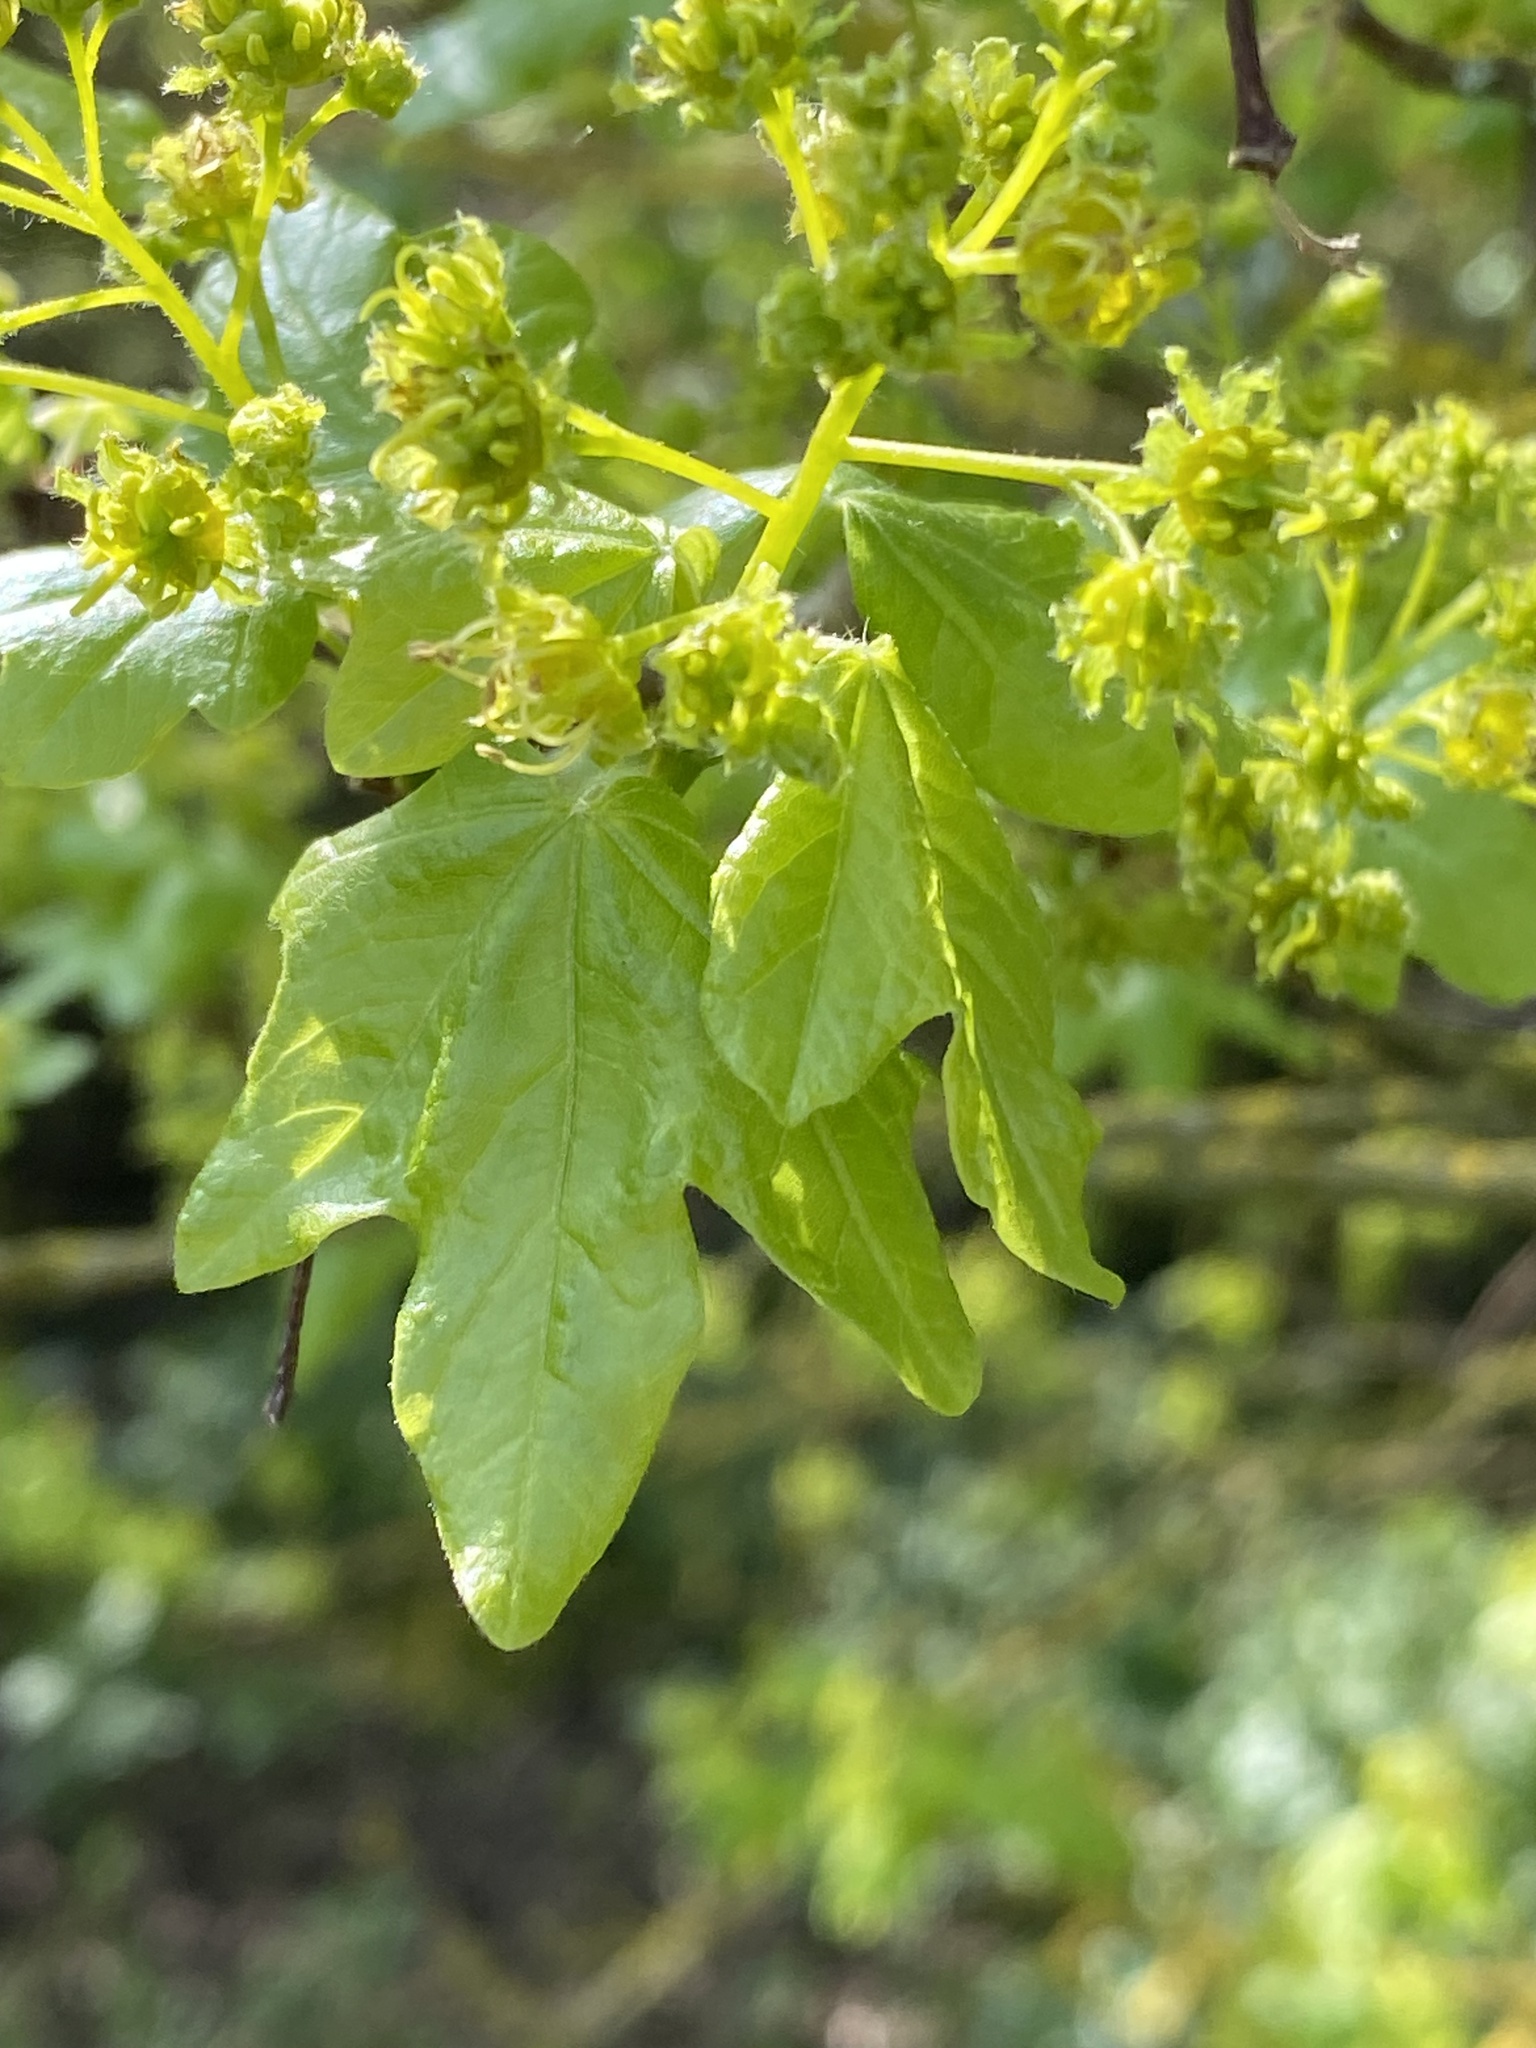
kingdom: Plantae
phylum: Tracheophyta
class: Magnoliopsida
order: Sapindales
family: Sapindaceae
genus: Acer
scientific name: Acer campestre
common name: Field maple
